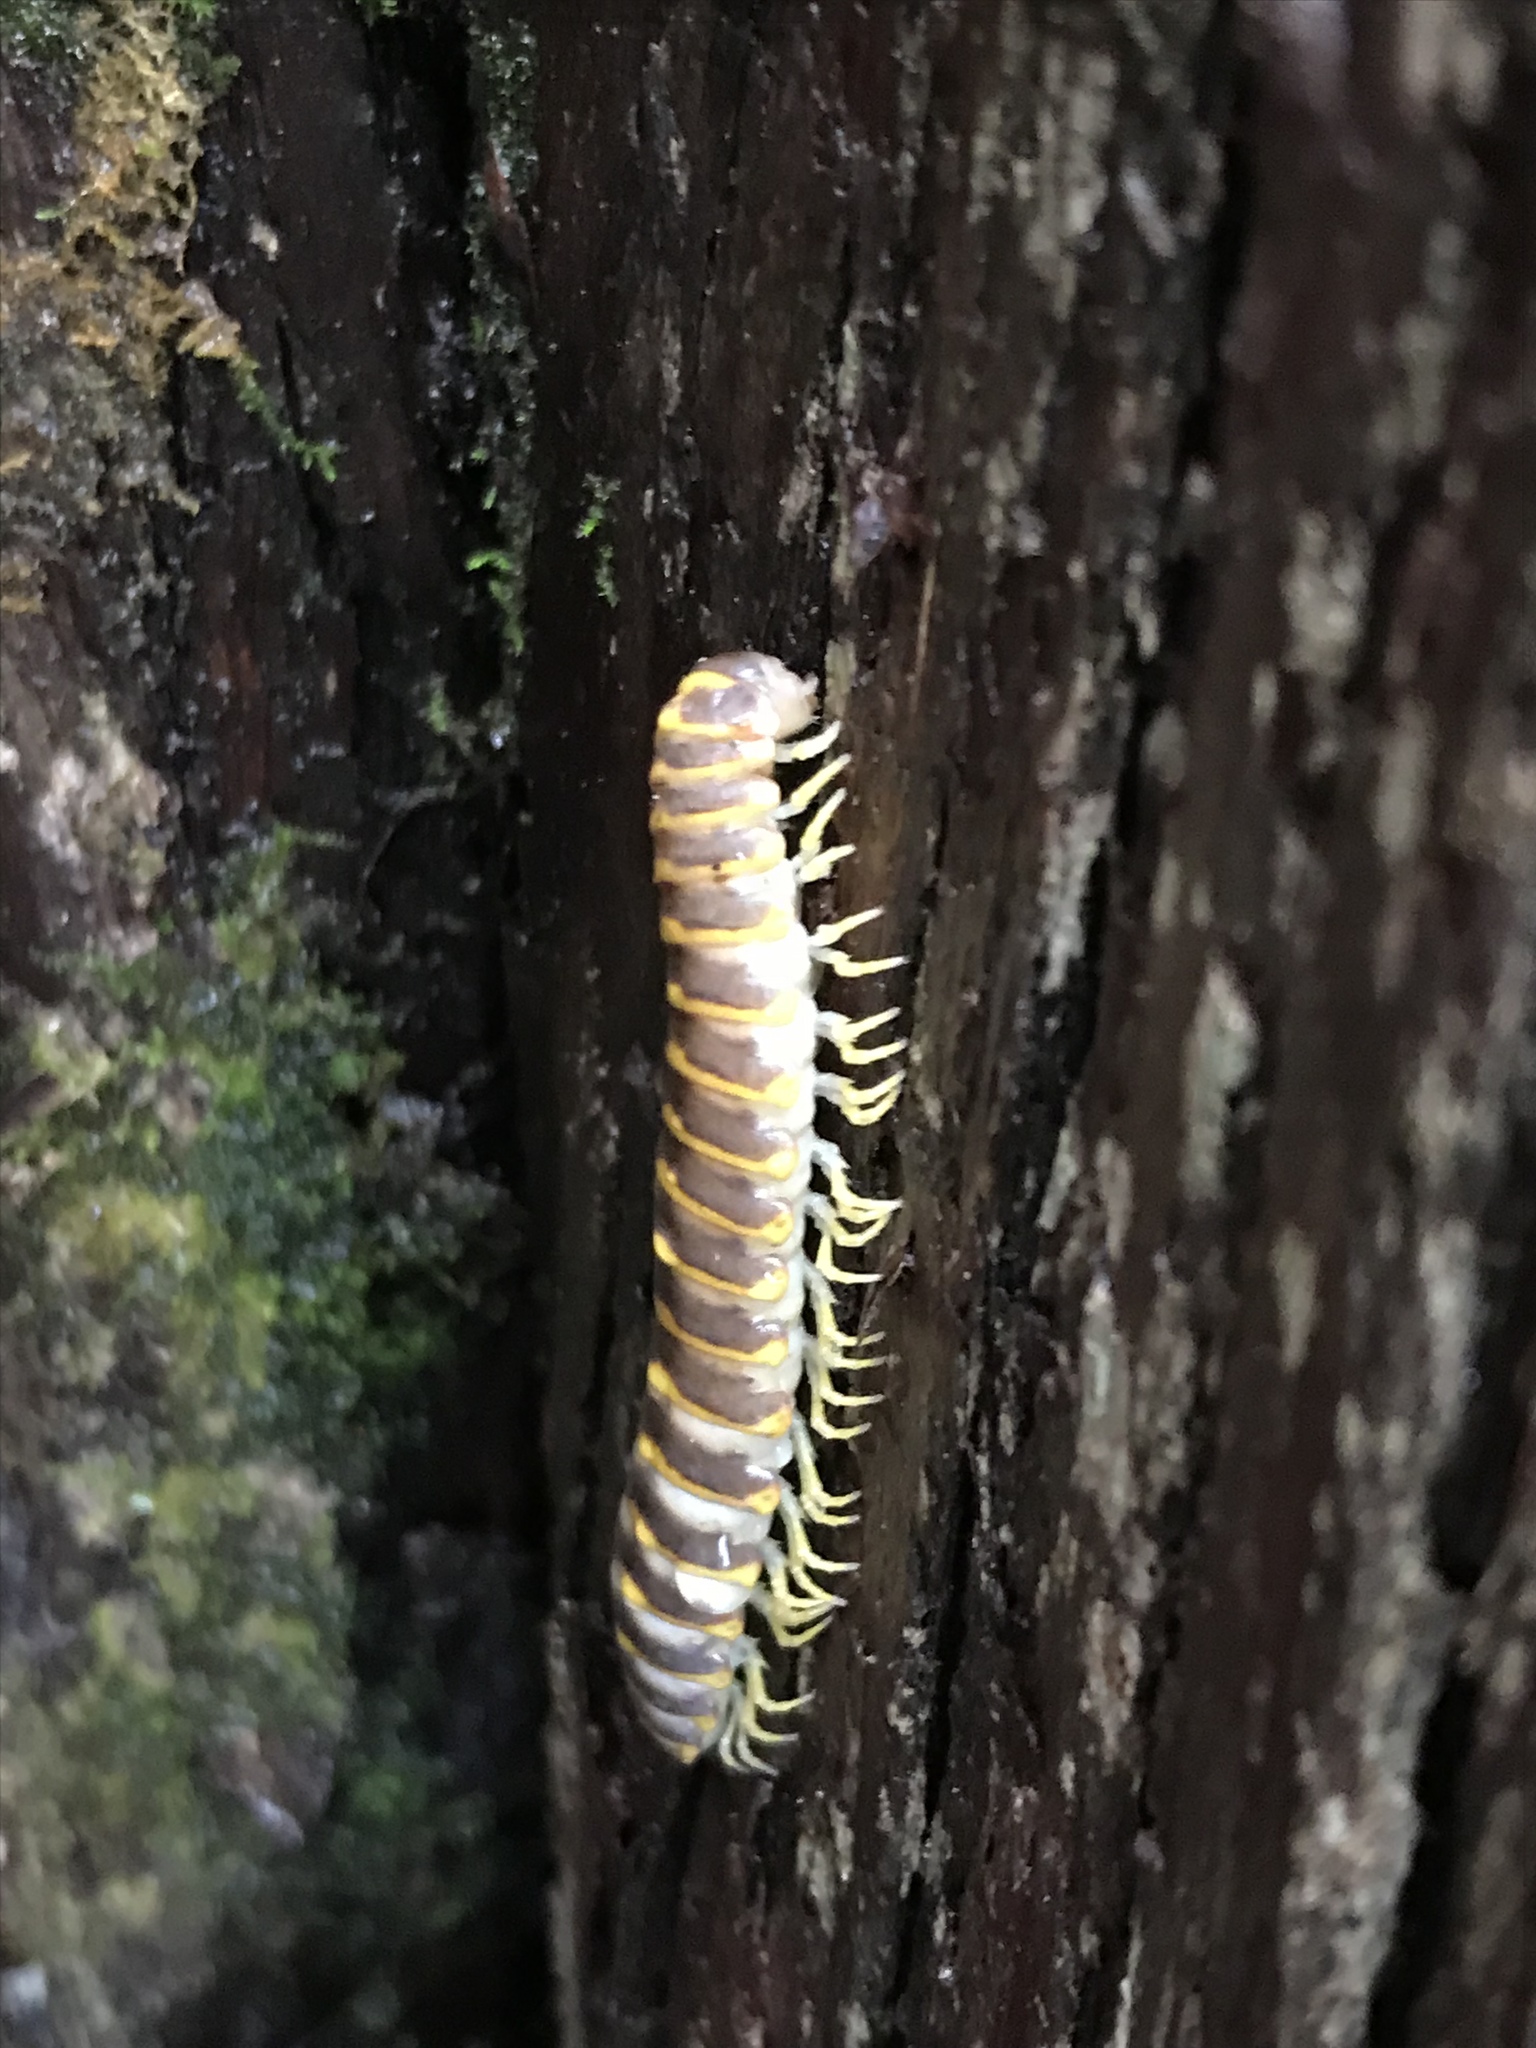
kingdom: Animalia
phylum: Arthropoda
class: Diplopoda
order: Polydesmida
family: Xystodesmidae
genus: Rudiloria
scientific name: Rudiloria trimaculata
